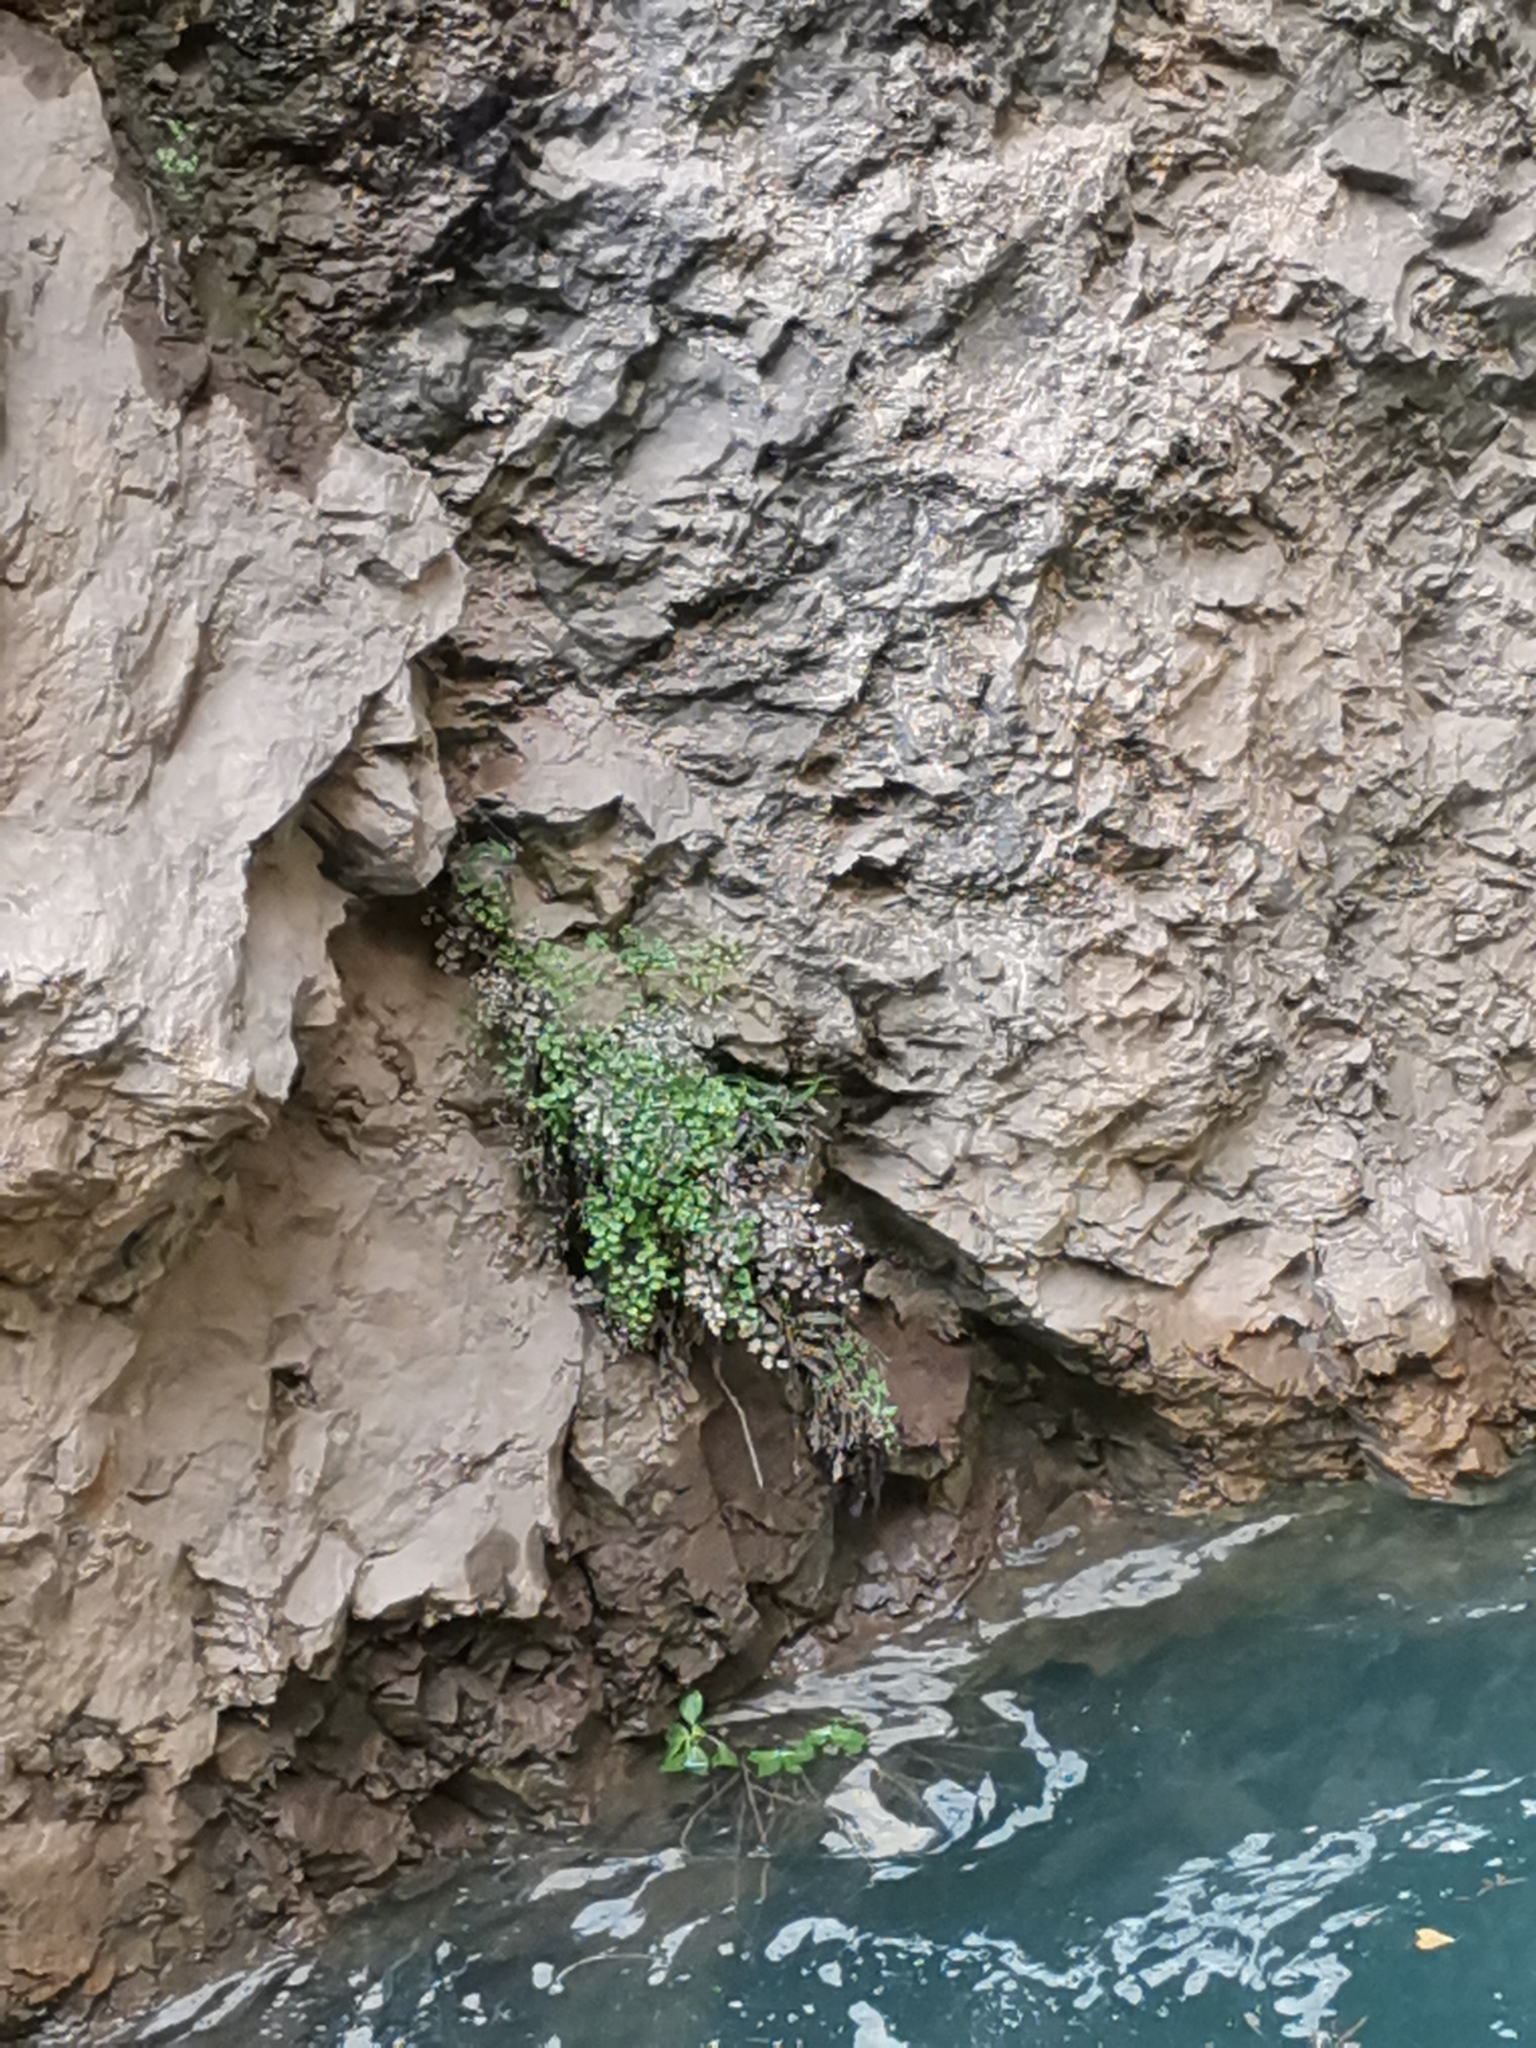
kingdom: Plantae
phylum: Tracheophyta
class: Polypodiopsida
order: Polypodiales
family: Pteridaceae
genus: Adiantum
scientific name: Adiantum capillus-veneris
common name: Maidenhair fern
